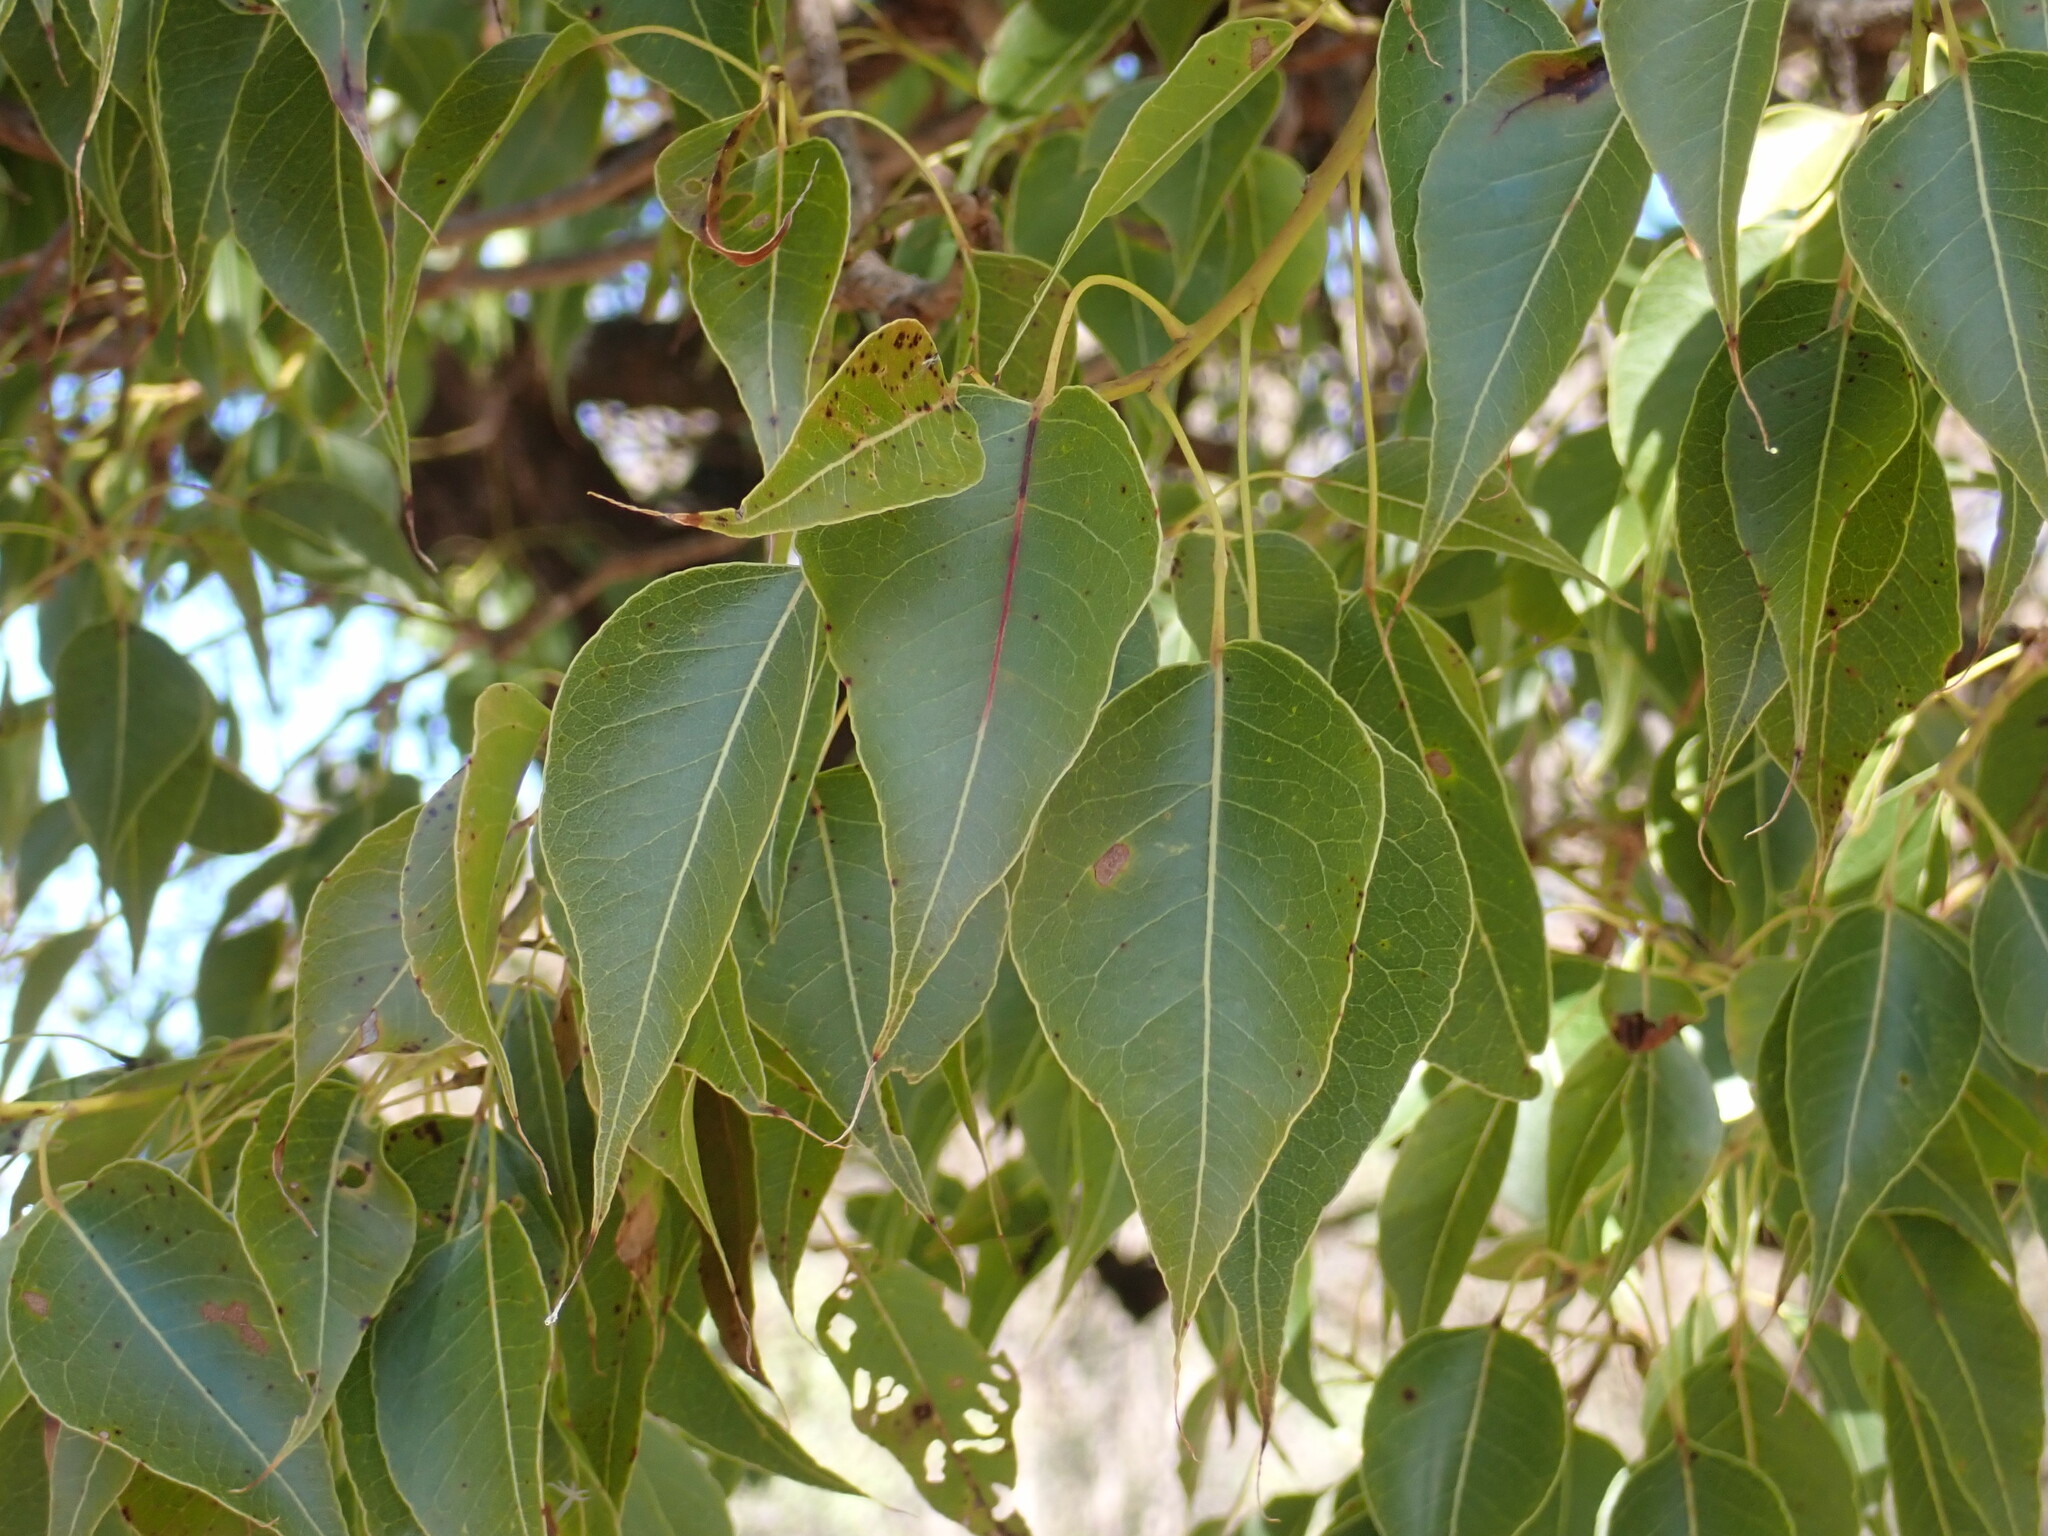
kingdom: Plantae
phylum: Tracheophyta
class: Magnoliopsida
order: Malvales
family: Malvaceae
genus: Brachychiton
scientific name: Brachychiton populneus
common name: Kurrajong
